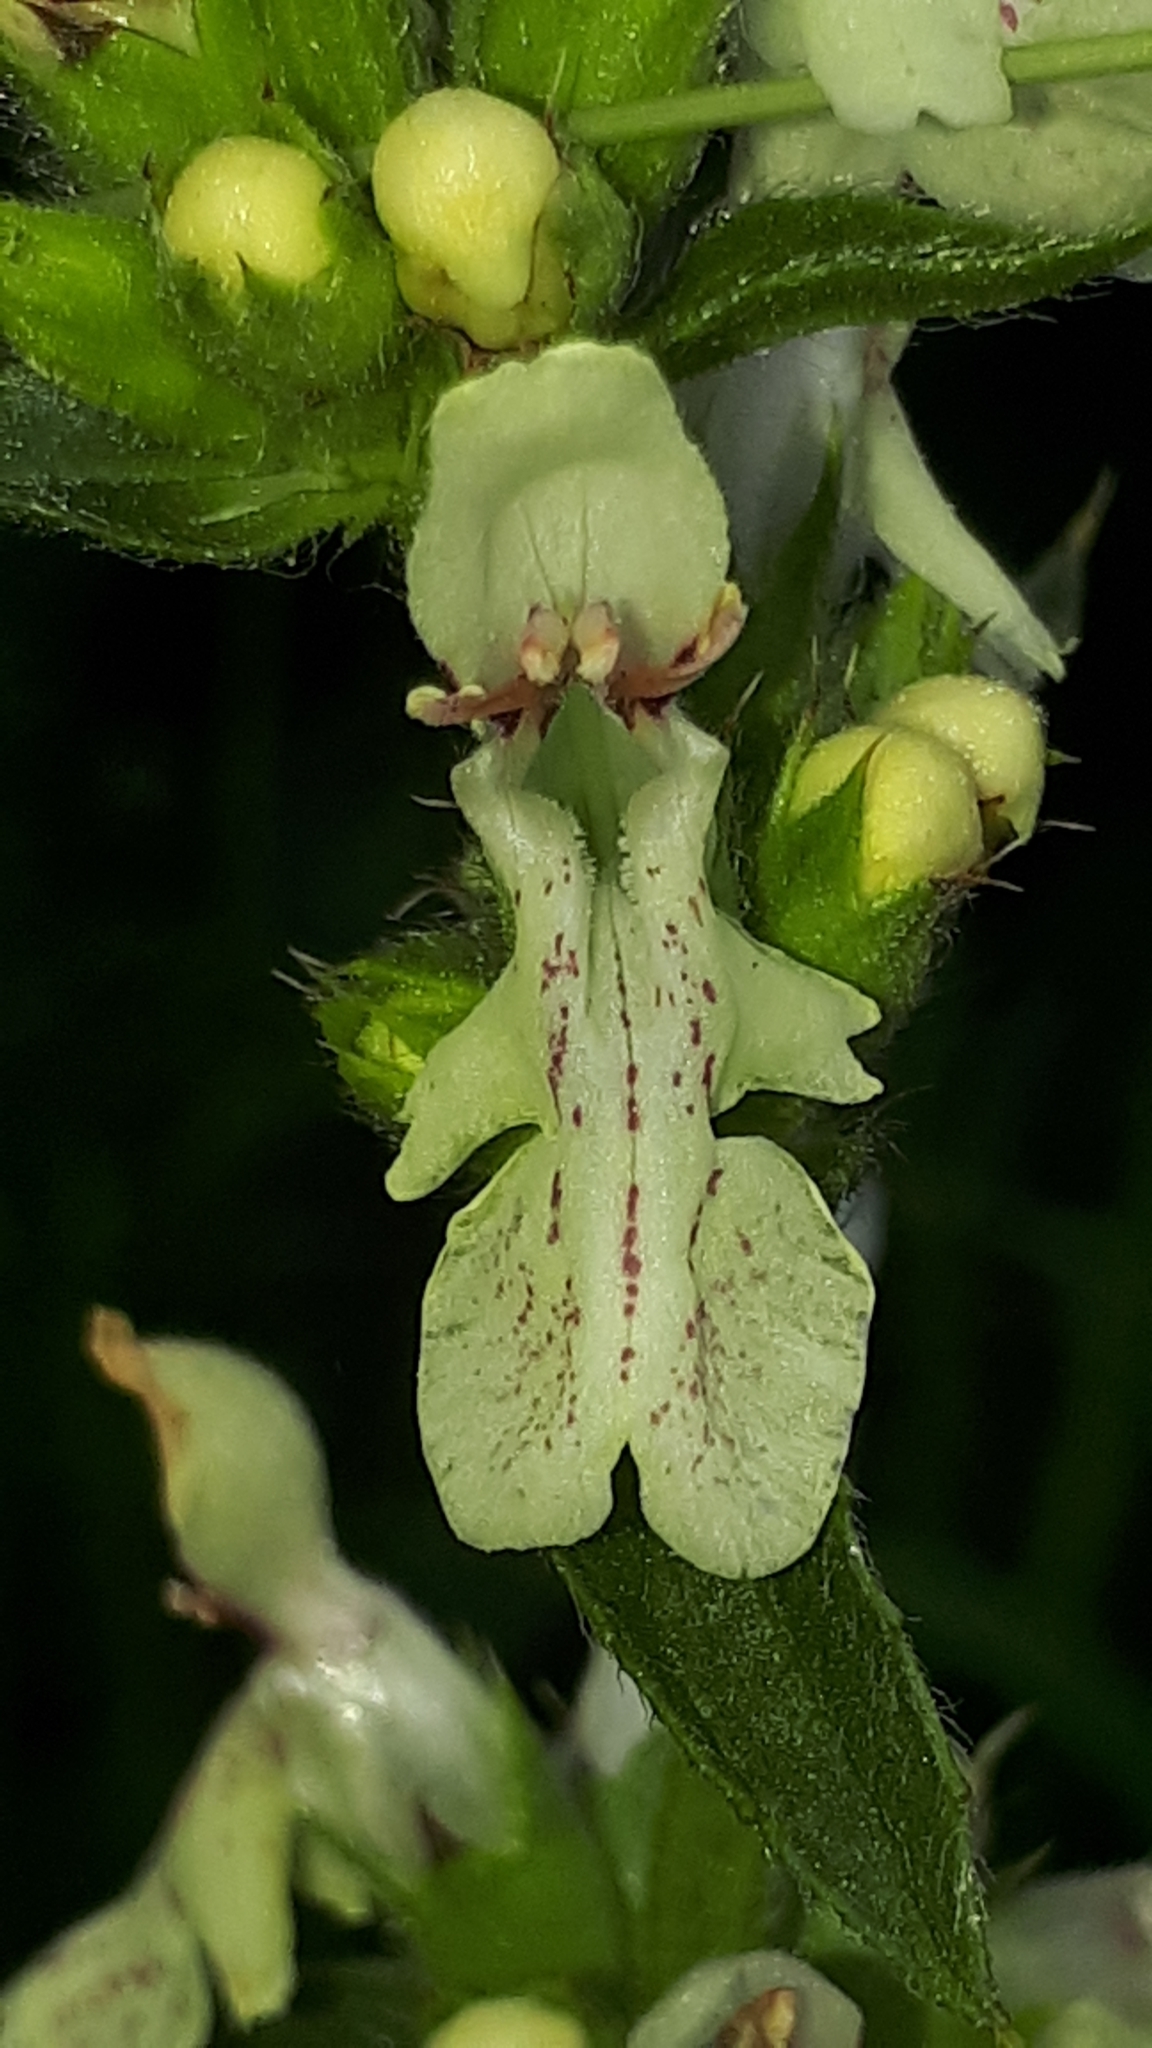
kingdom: Plantae
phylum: Tracheophyta
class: Magnoliopsida
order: Lamiales
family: Lamiaceae
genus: Stachys
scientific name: Stachys recta
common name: Perennial yellow-woundwort
